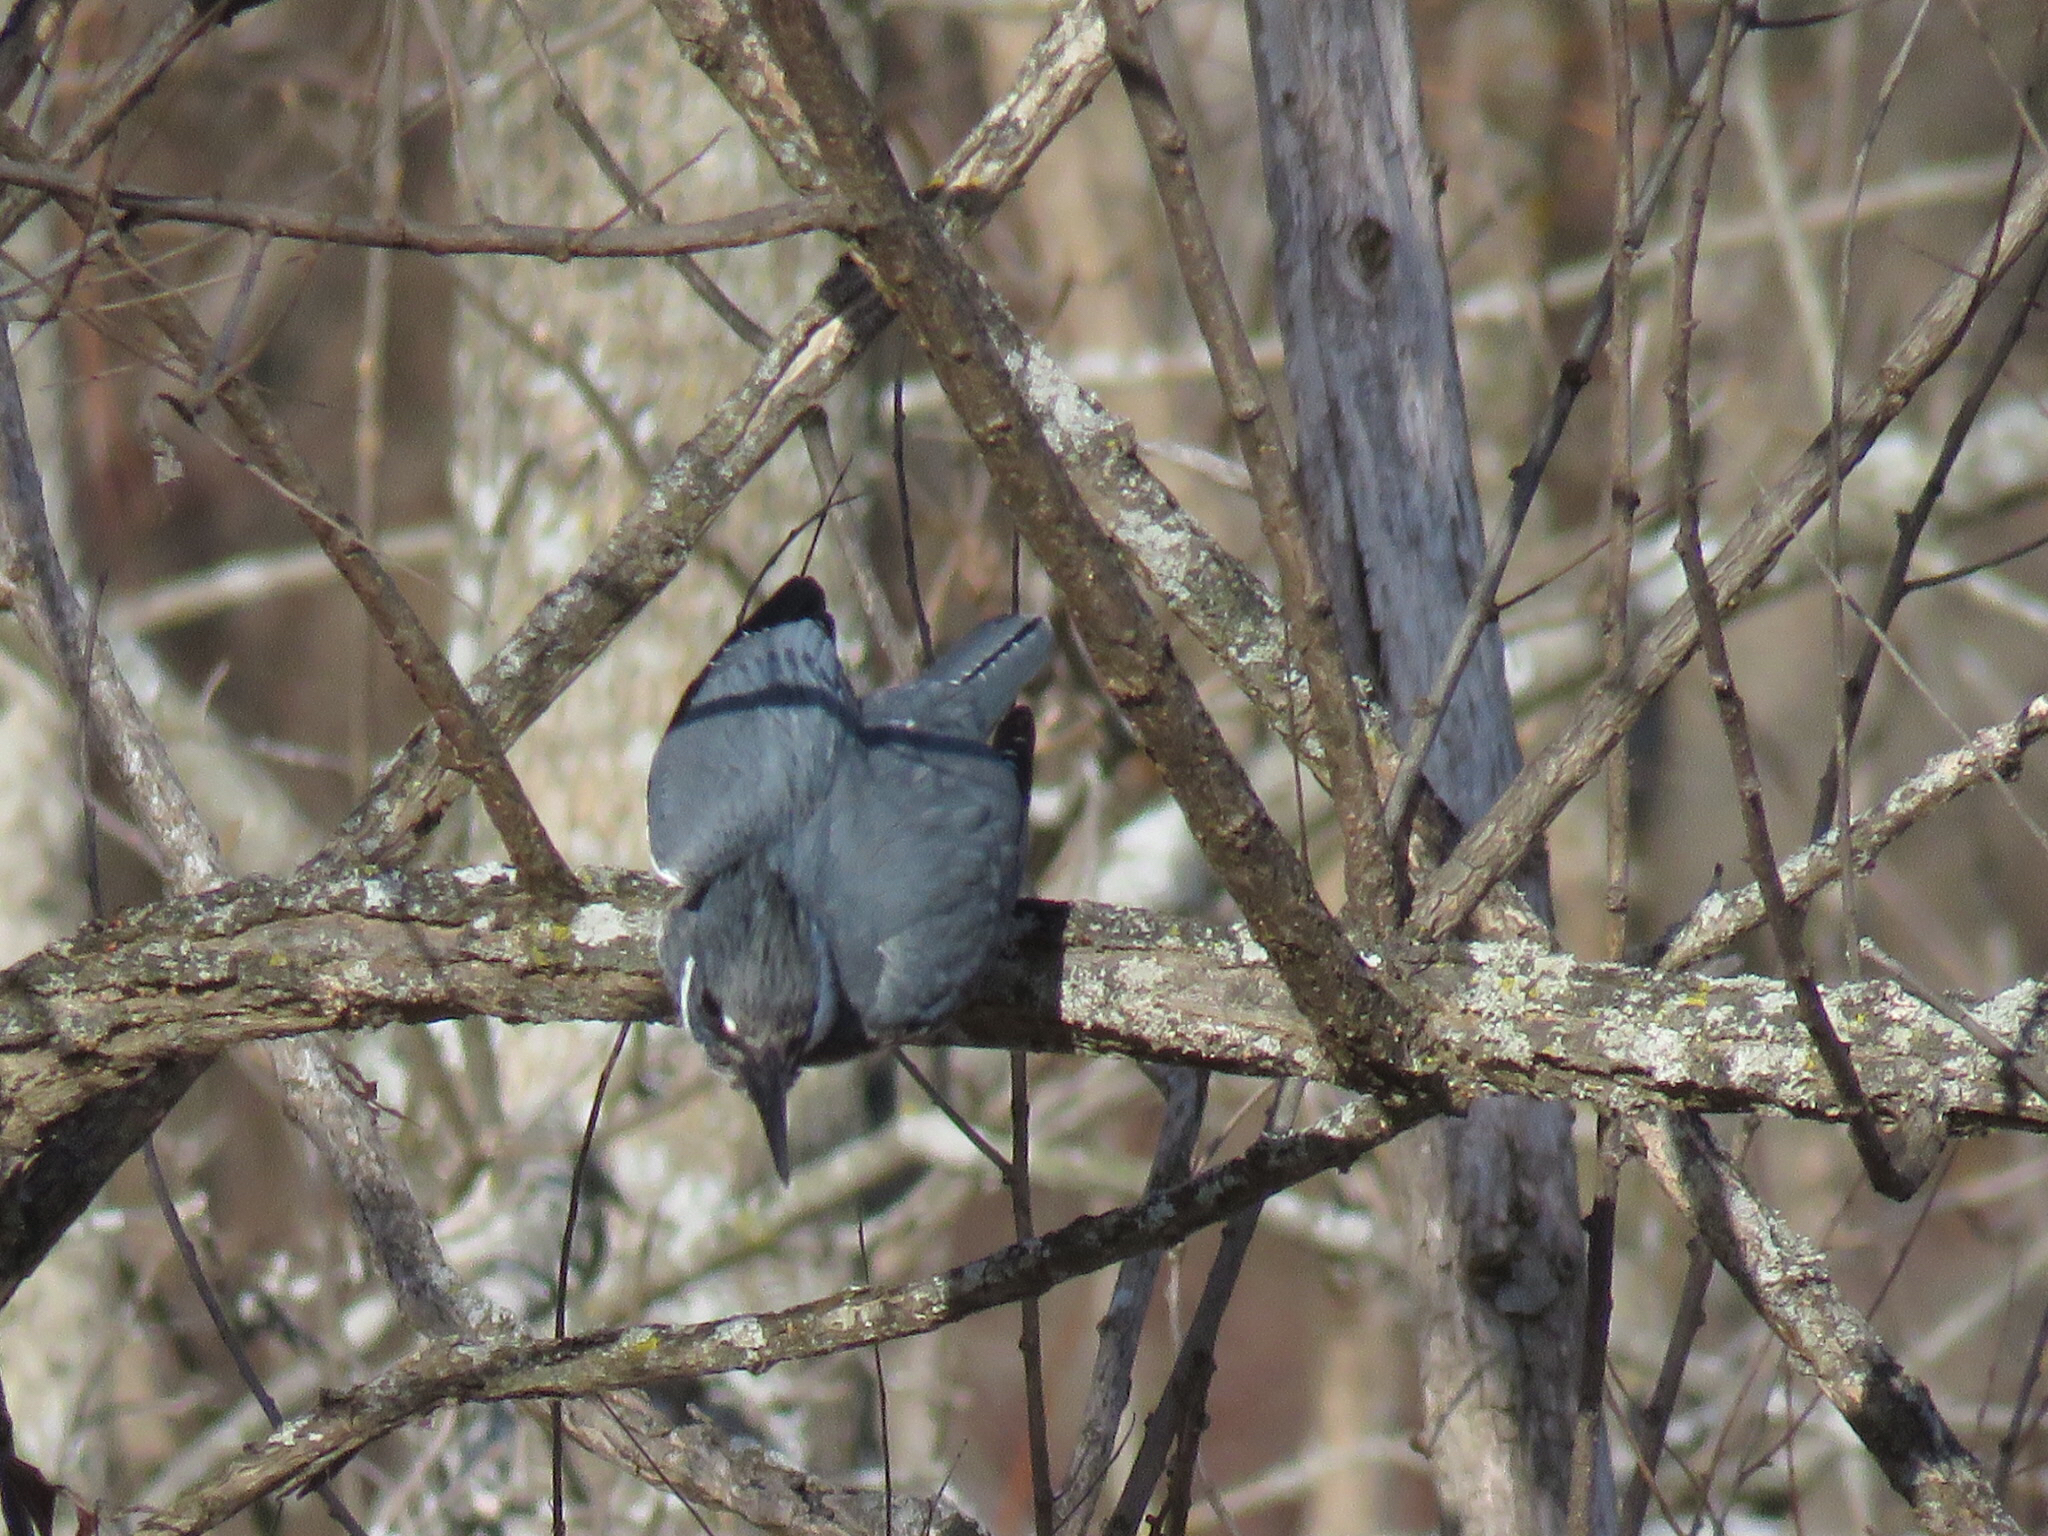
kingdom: Animalia
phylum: Chordata
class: Aves
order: Coraciiformes
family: Alcedinidae
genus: Megaceryle
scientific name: Megaceryle alcyon
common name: Belted kingfisher
